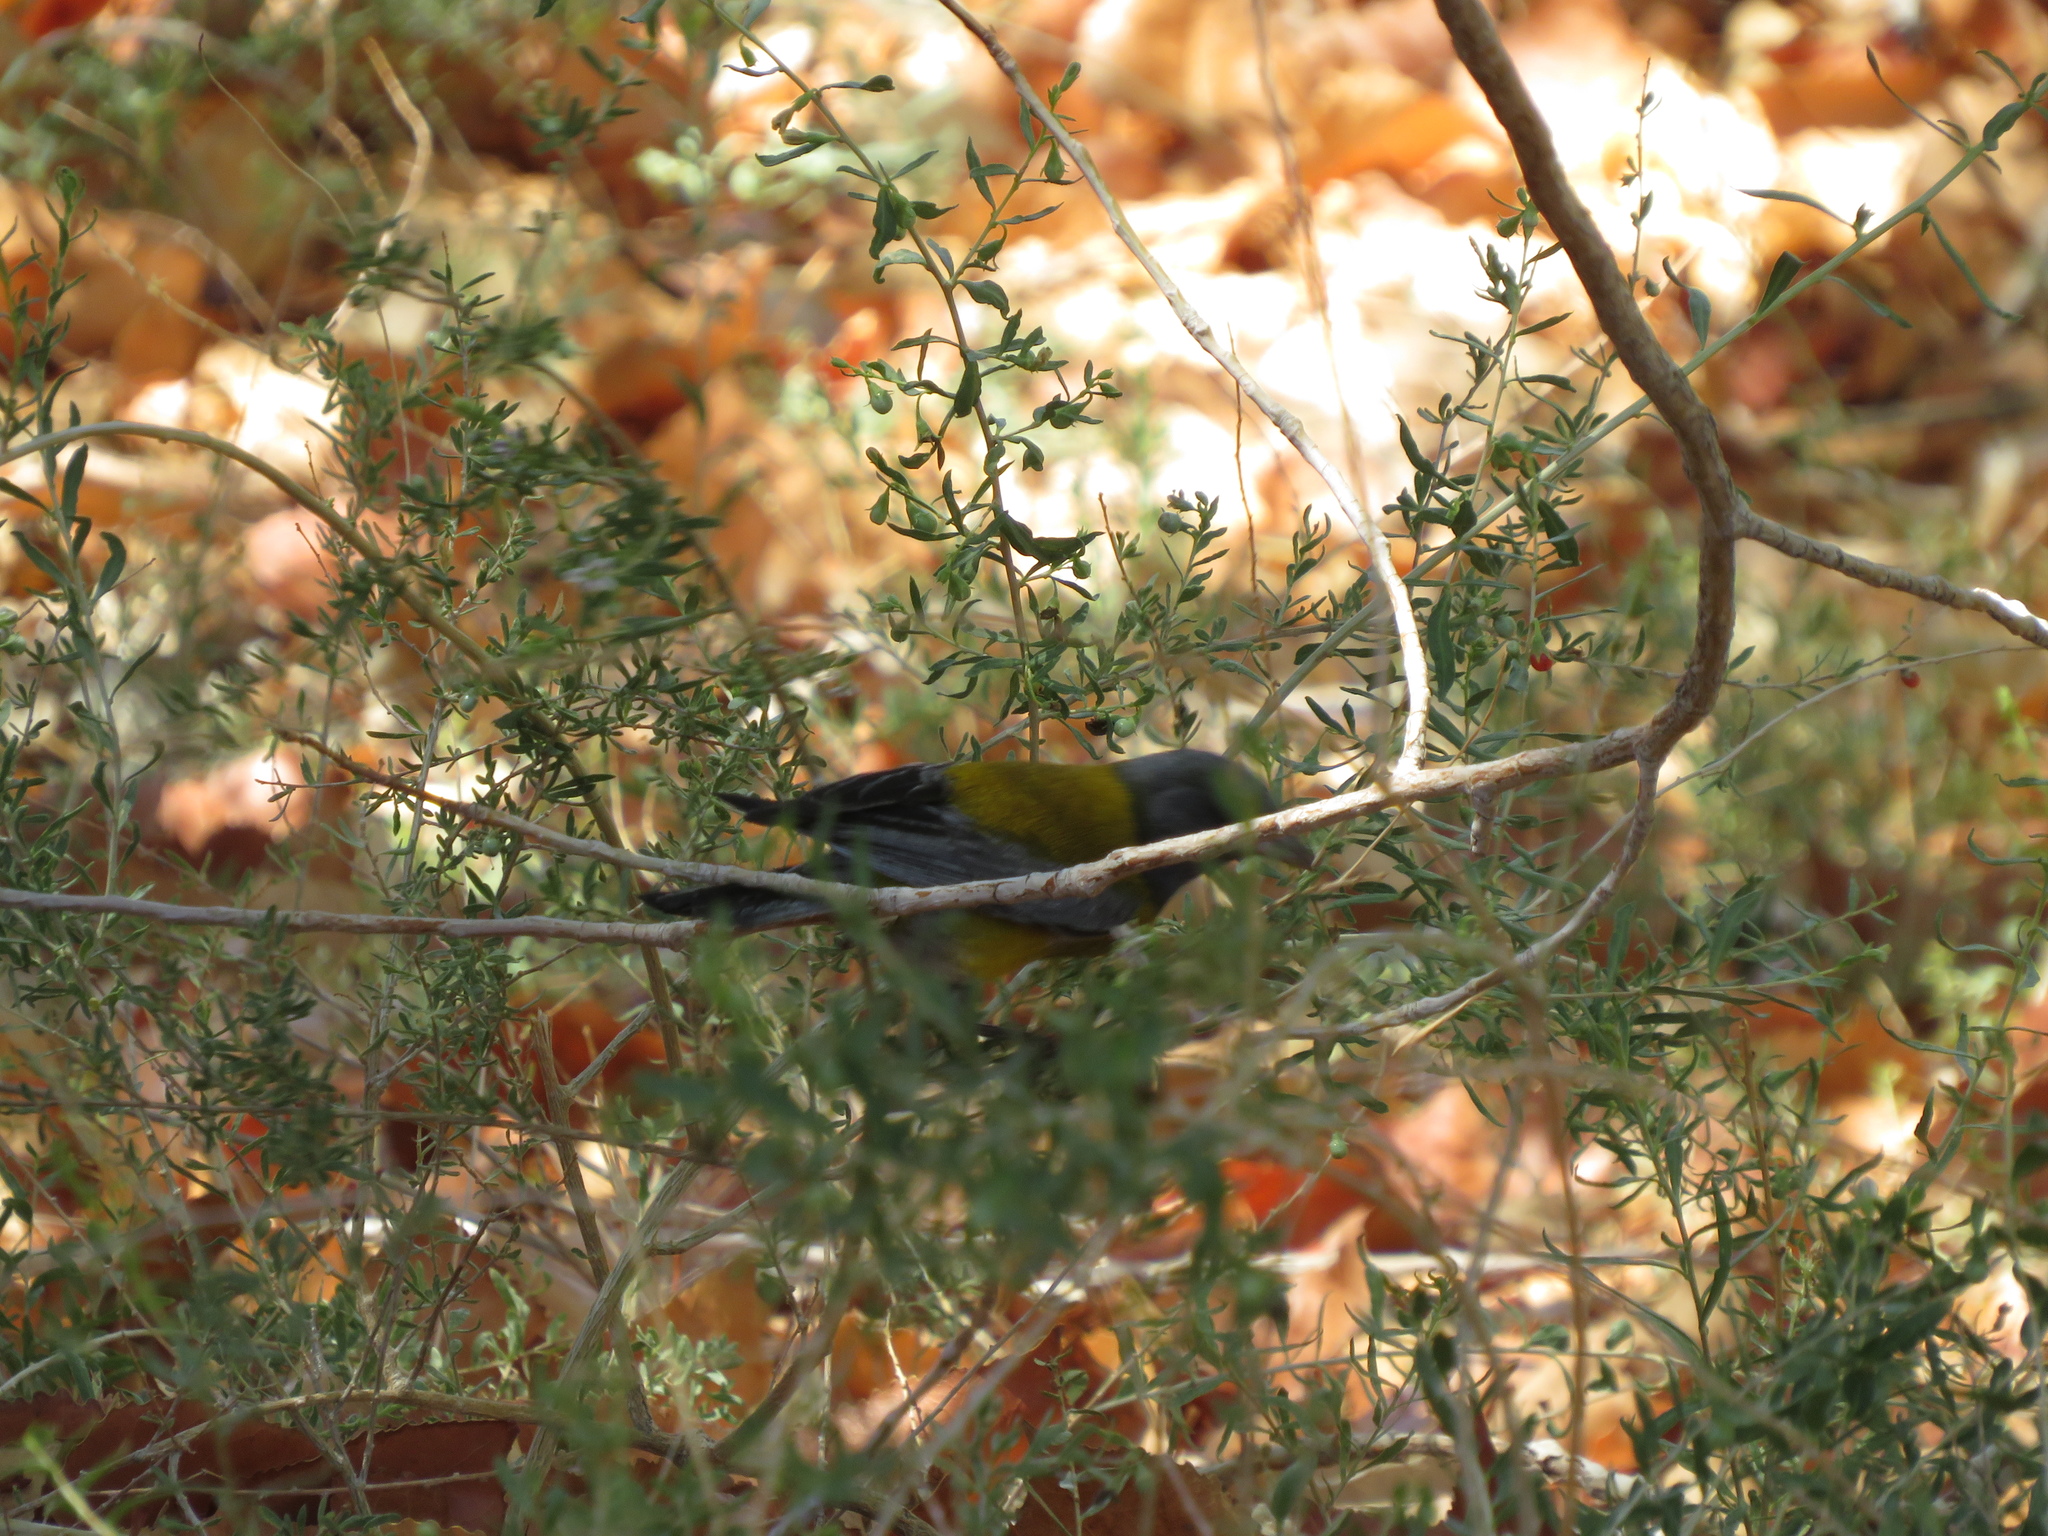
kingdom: Animalia
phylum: Chordata
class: Aves
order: Passeriformes
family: Thraupidae
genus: Phrygilus
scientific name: Phrygilus gayi
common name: Grey-hooded sierra finch
